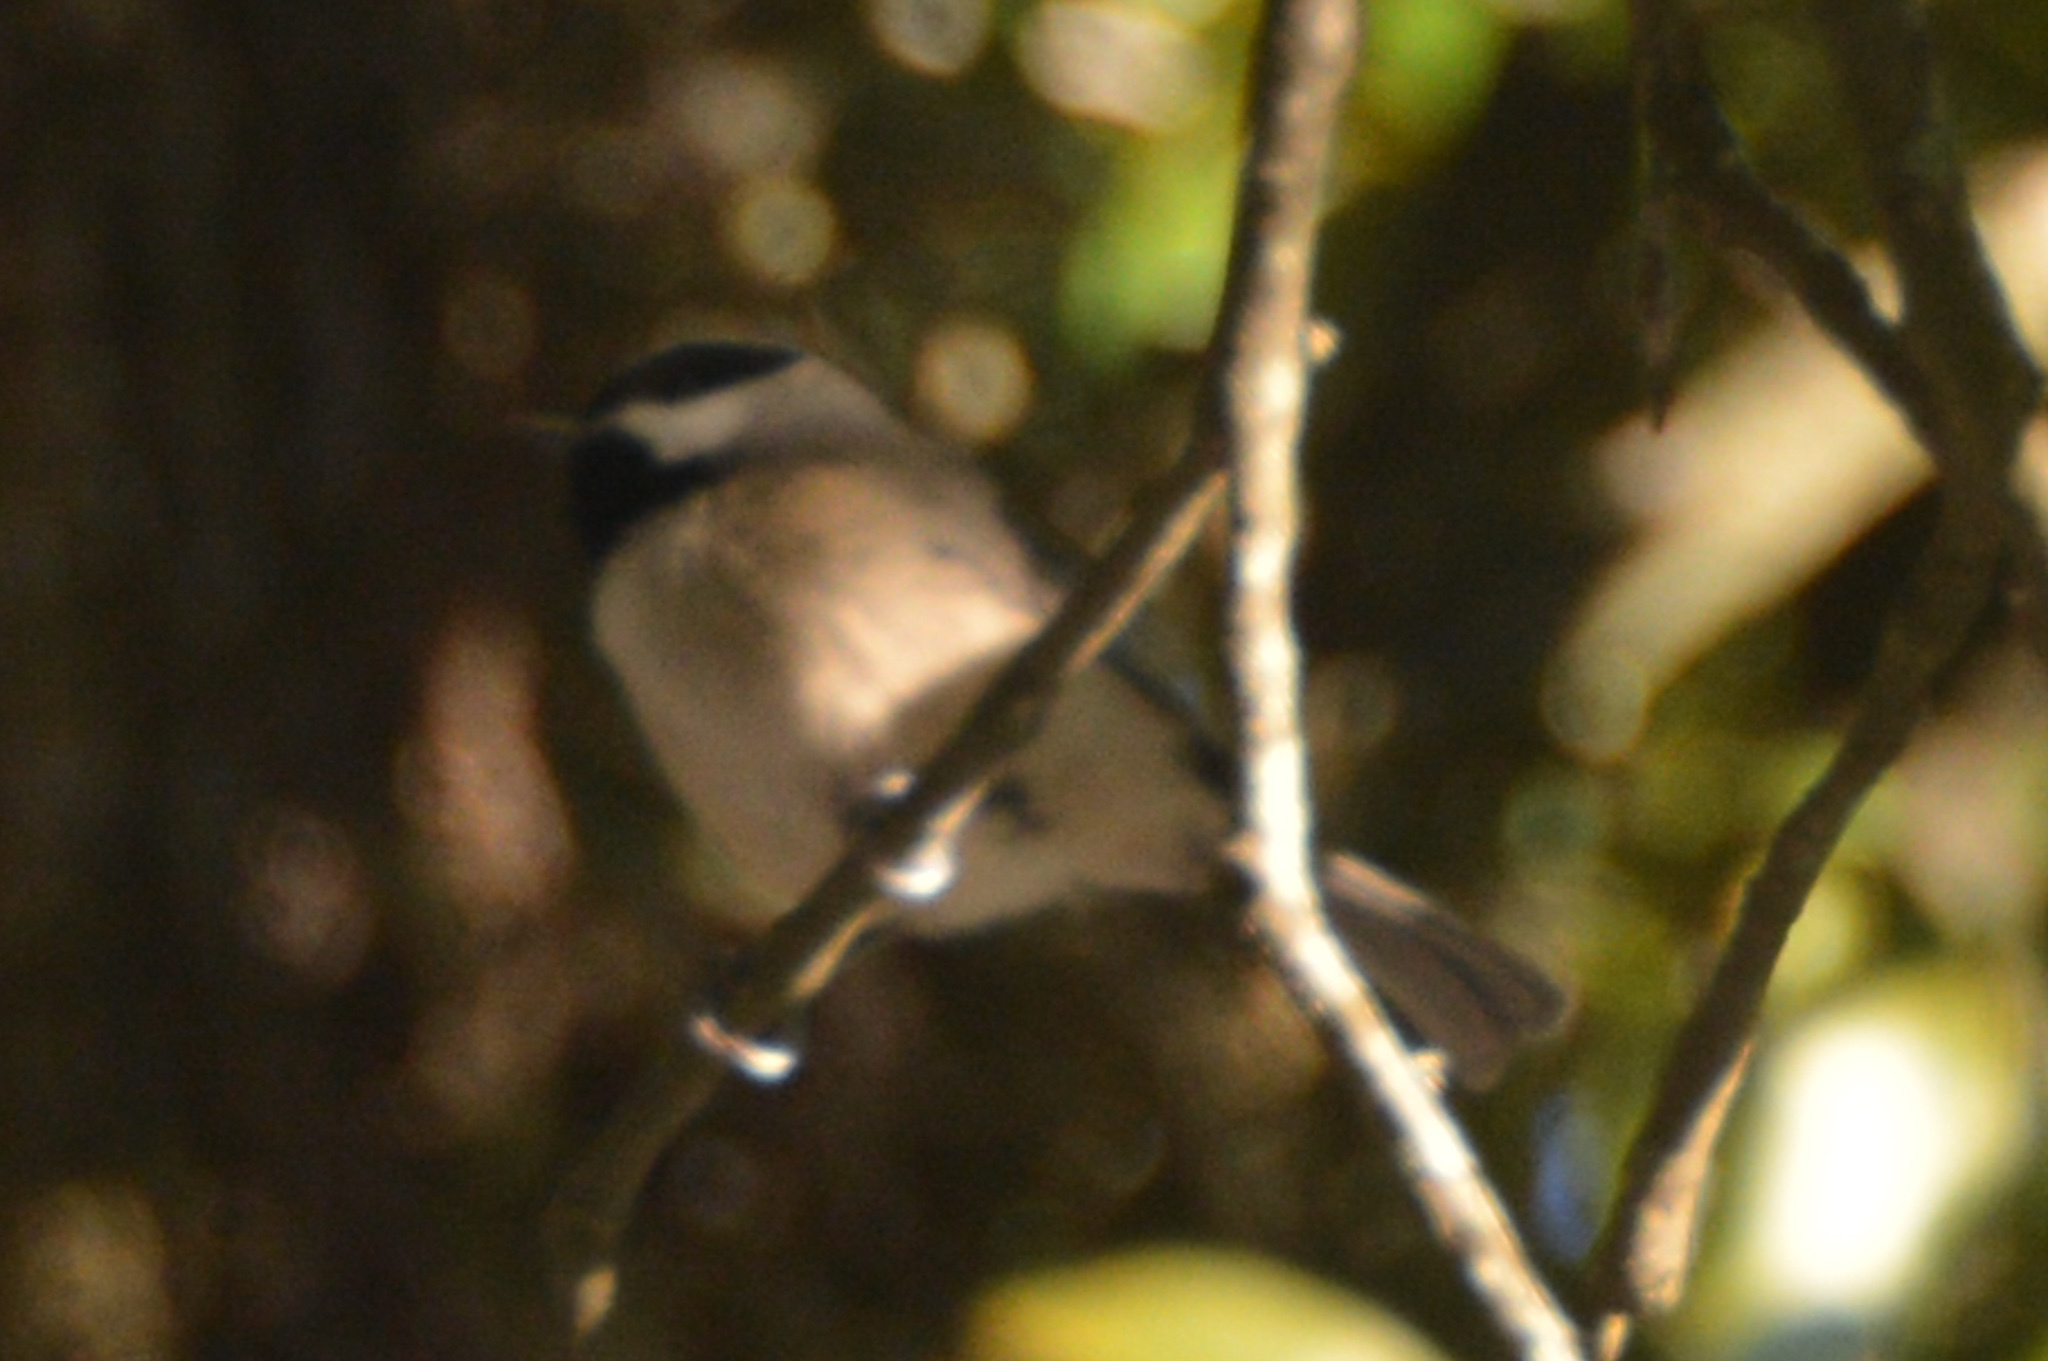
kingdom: Animalia
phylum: Chordata
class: Aves
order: Passeriformes
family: Paridae
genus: Poecile
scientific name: Poecile carolinensis
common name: Carolina chickadee
